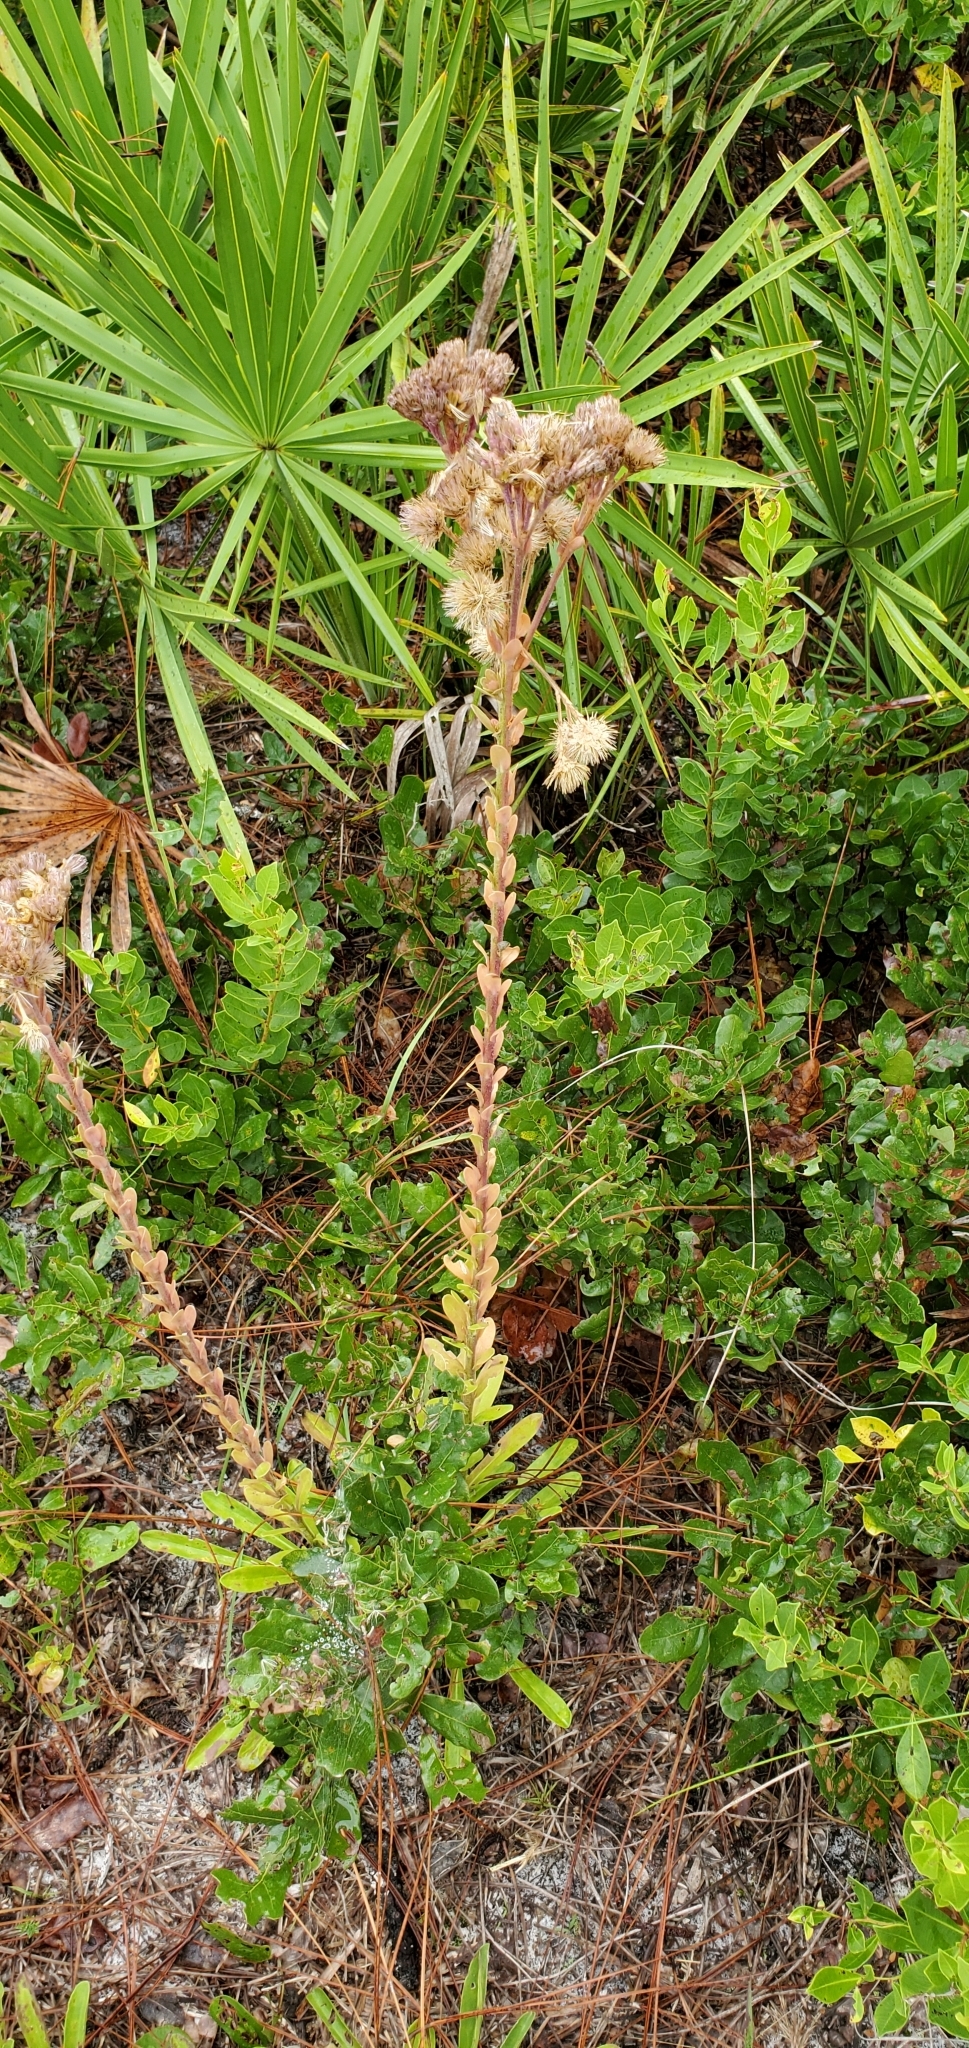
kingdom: Plantae
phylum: Tracheophyta
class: Magnoliopsida
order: Asterales
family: Asteraceae
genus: Carphephorus
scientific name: Carphephorus corymbosus
